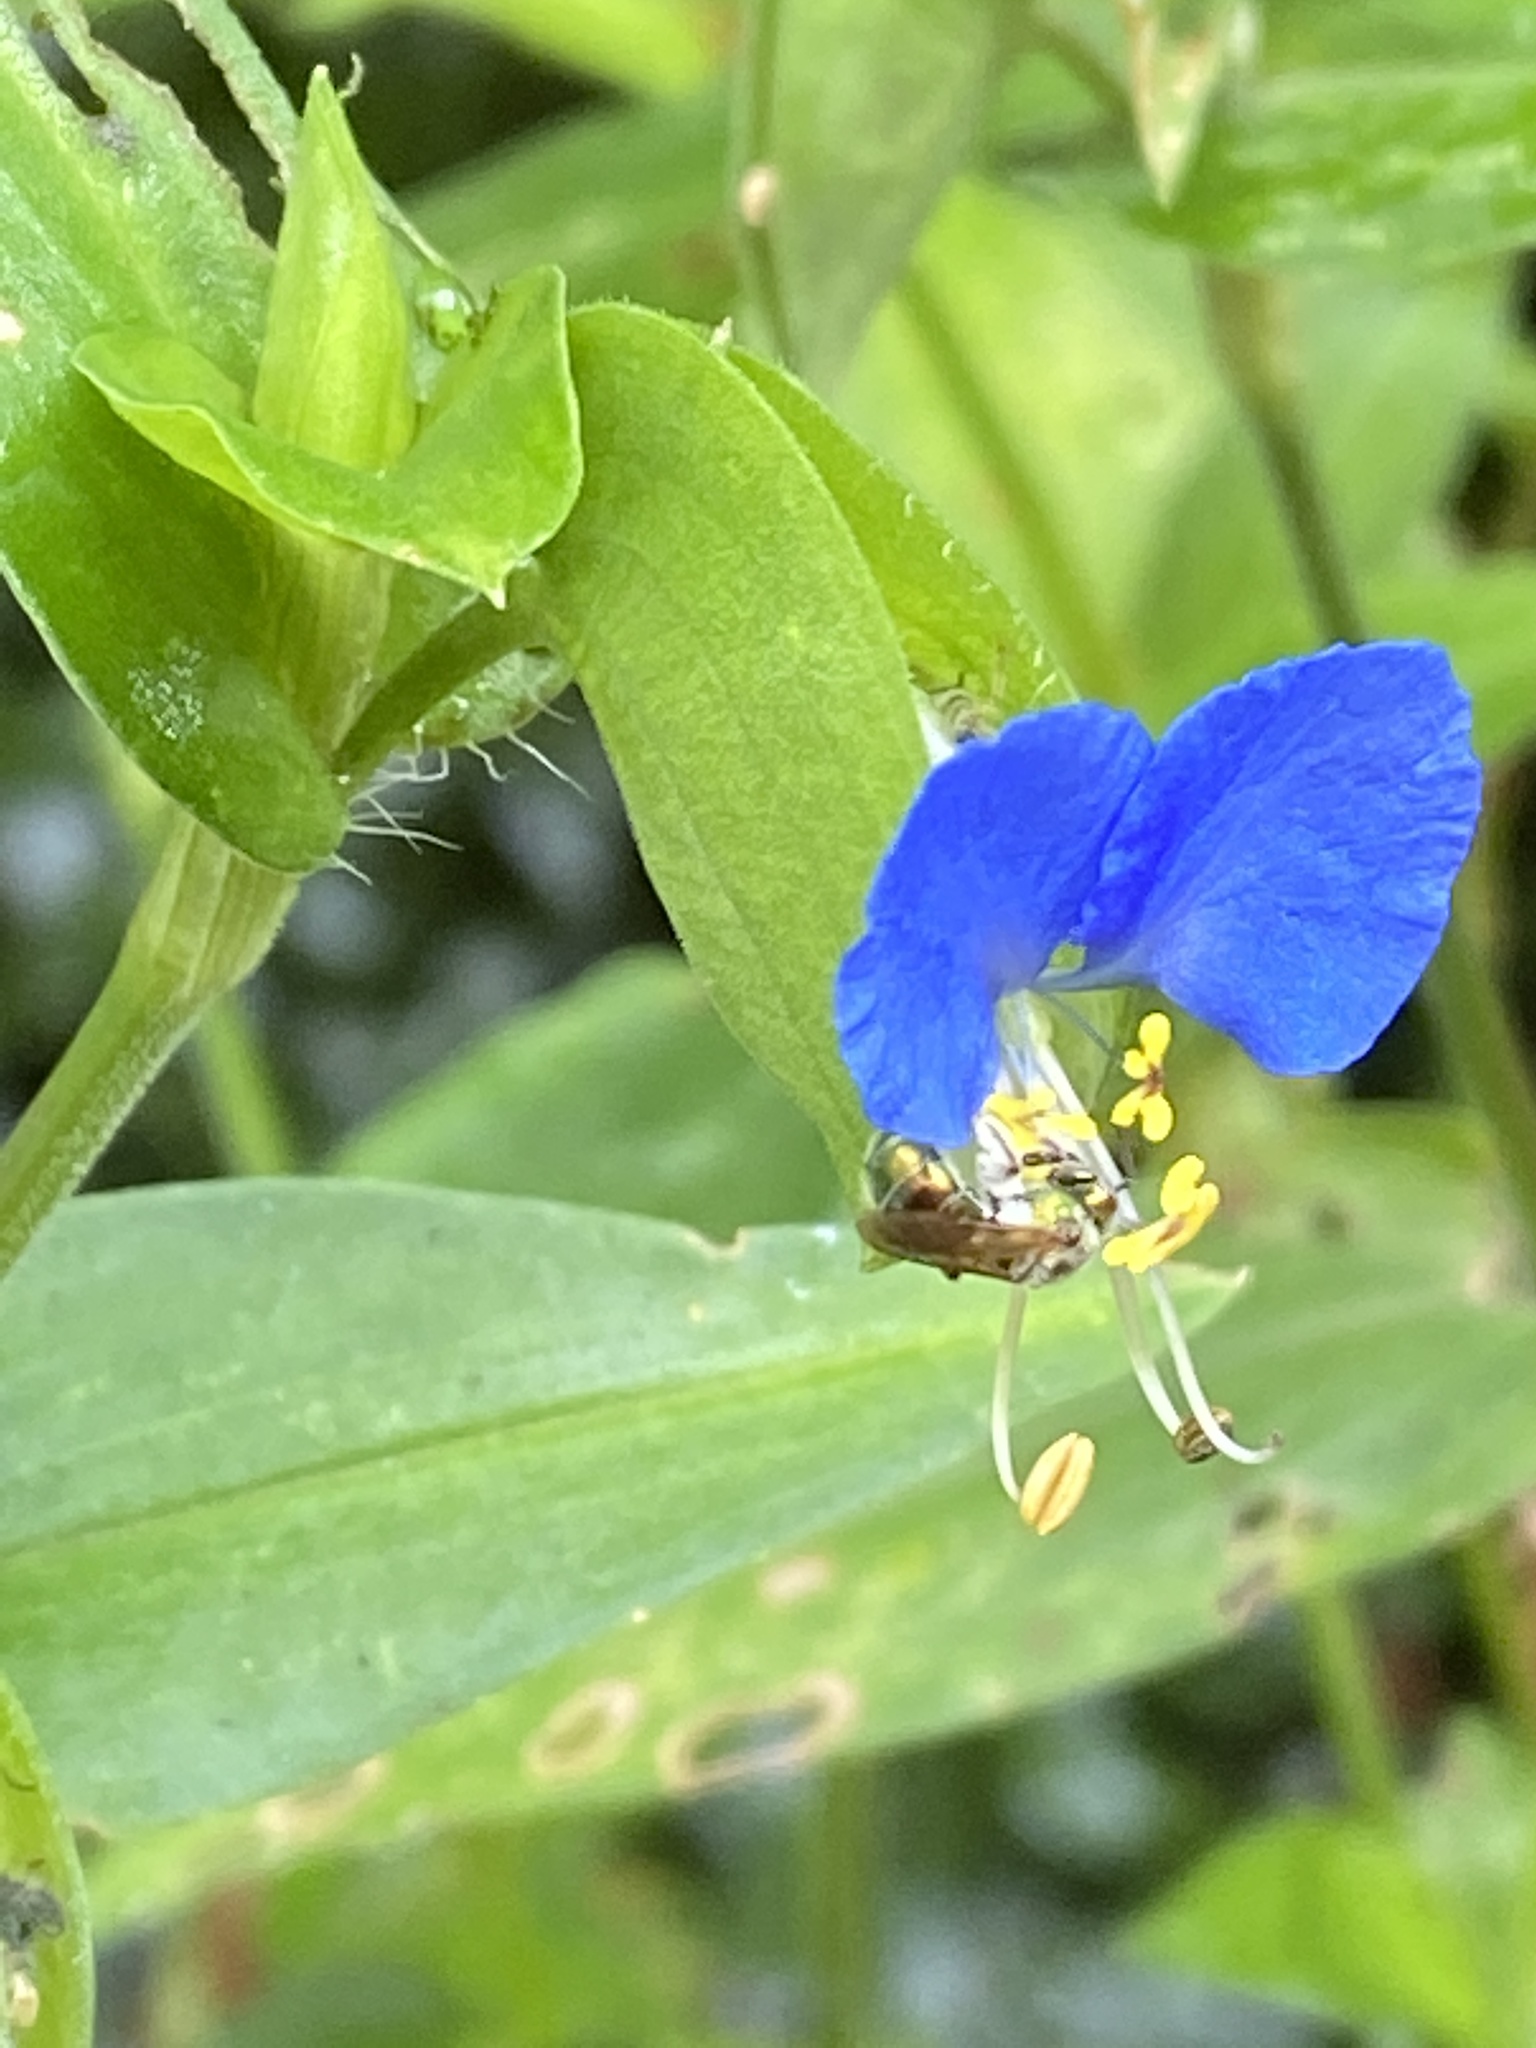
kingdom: Plantae
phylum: Tracheophyta
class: Liliopsida
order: Commelinales
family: Commelinaceae
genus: Commelina
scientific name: Commelina communis
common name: Asiatic dayflower
